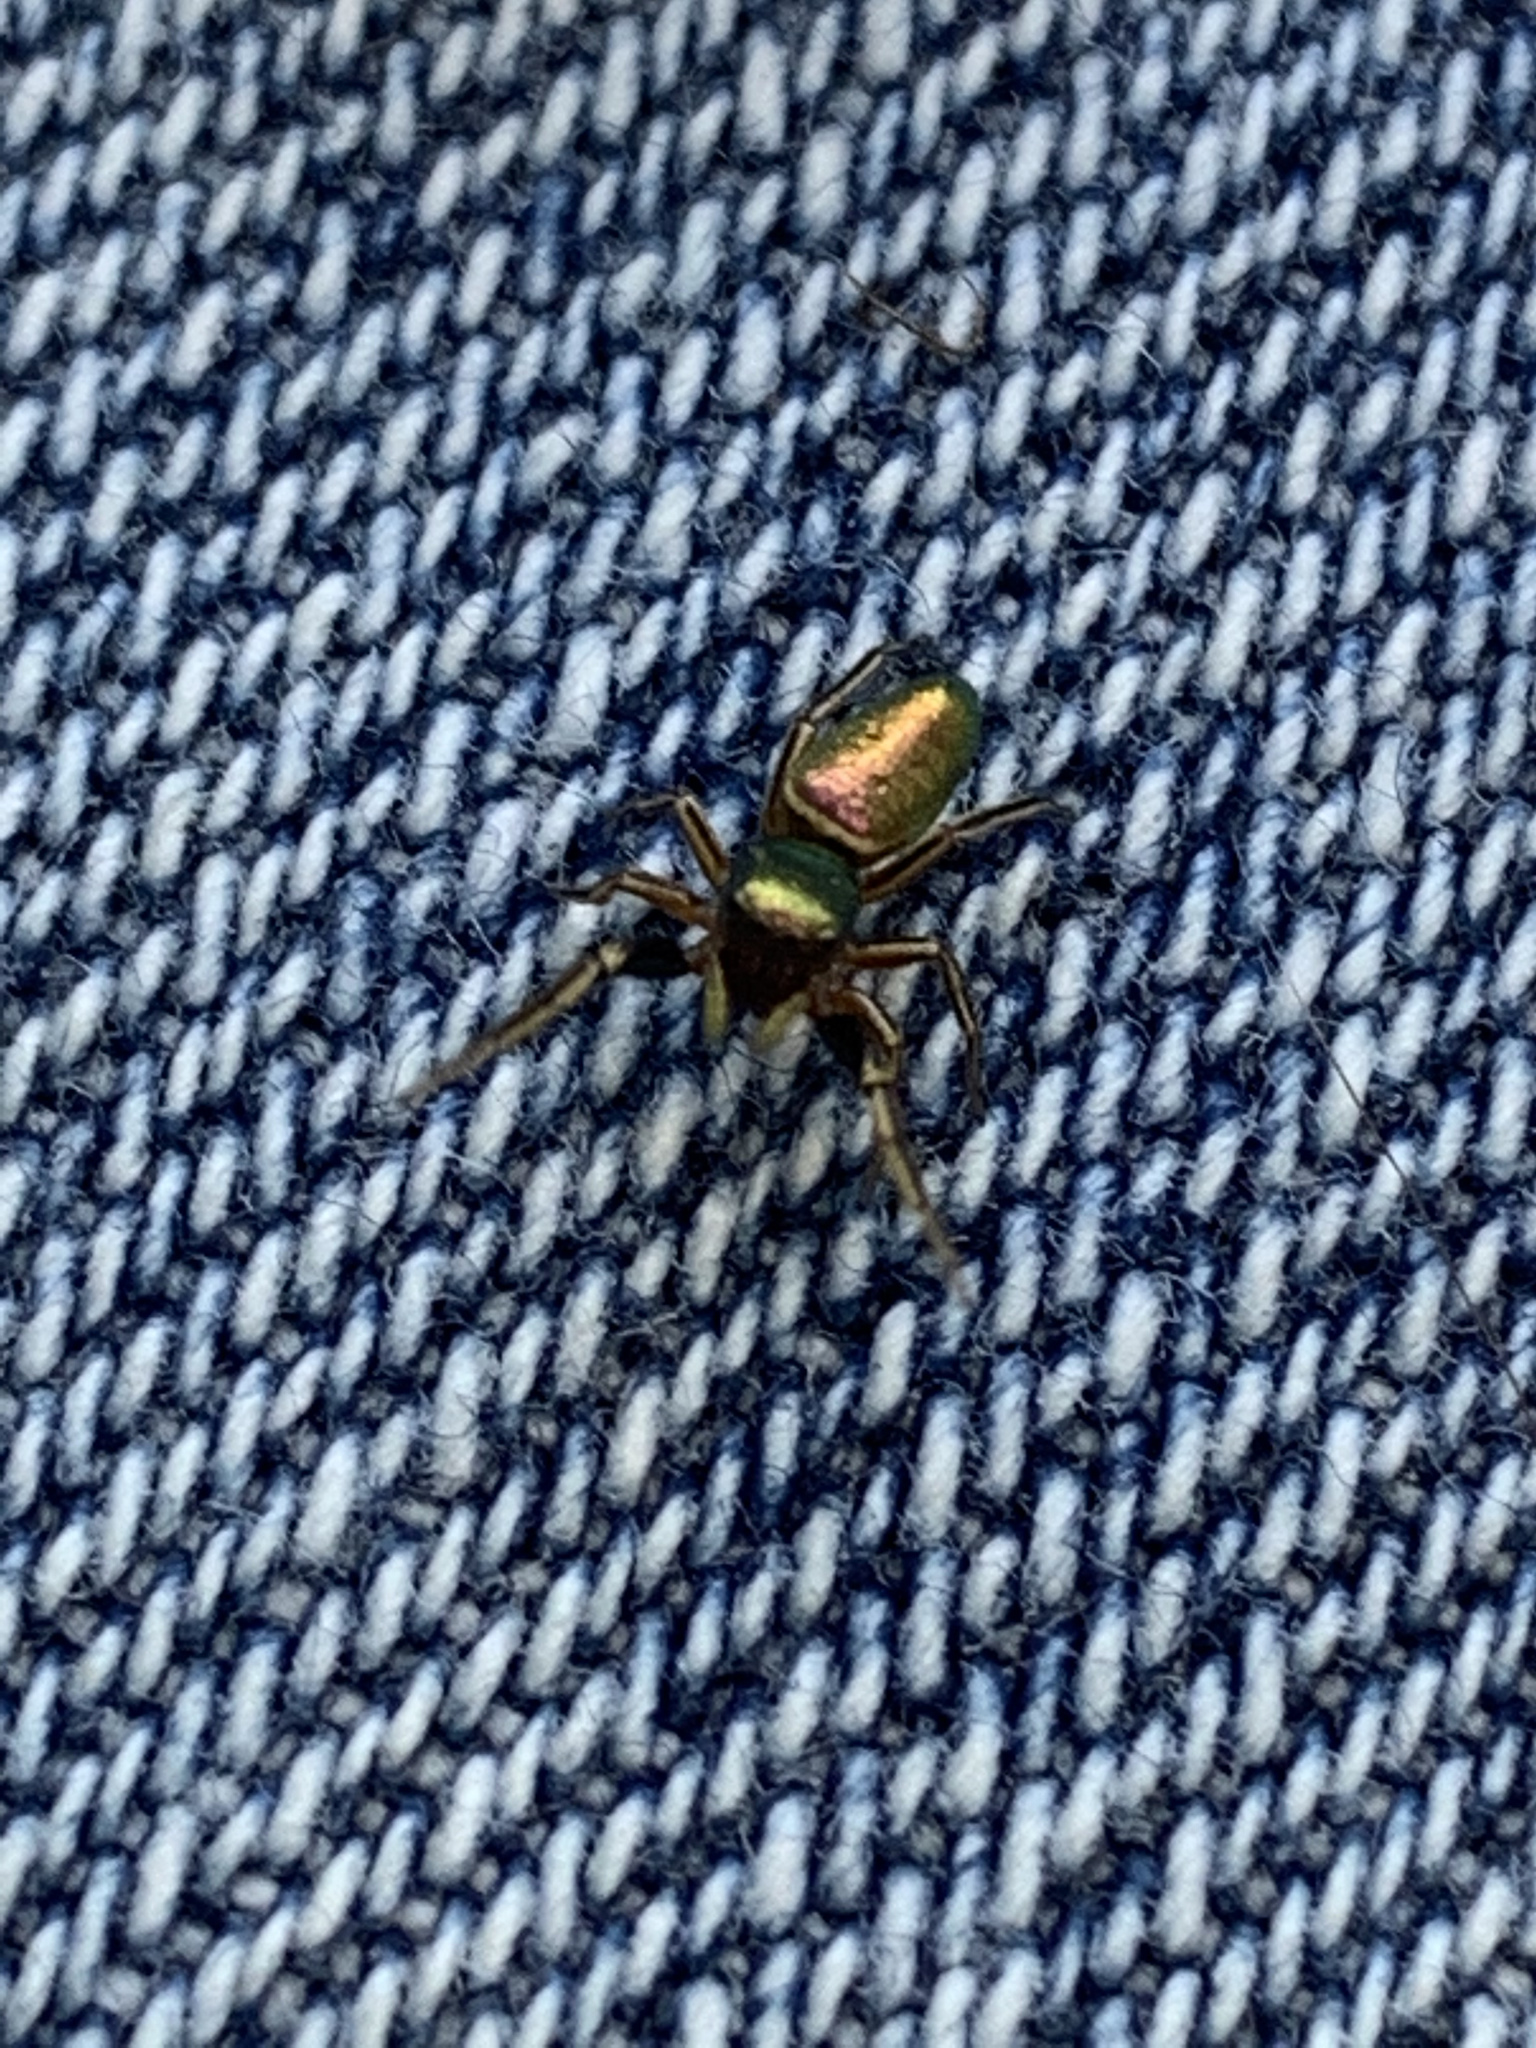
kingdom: Animalia
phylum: Arthropoda
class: Arachnida
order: Araneae
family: Salticidae
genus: Tutelina
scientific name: Tutelina elegans
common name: Thin-spined jumping spider
